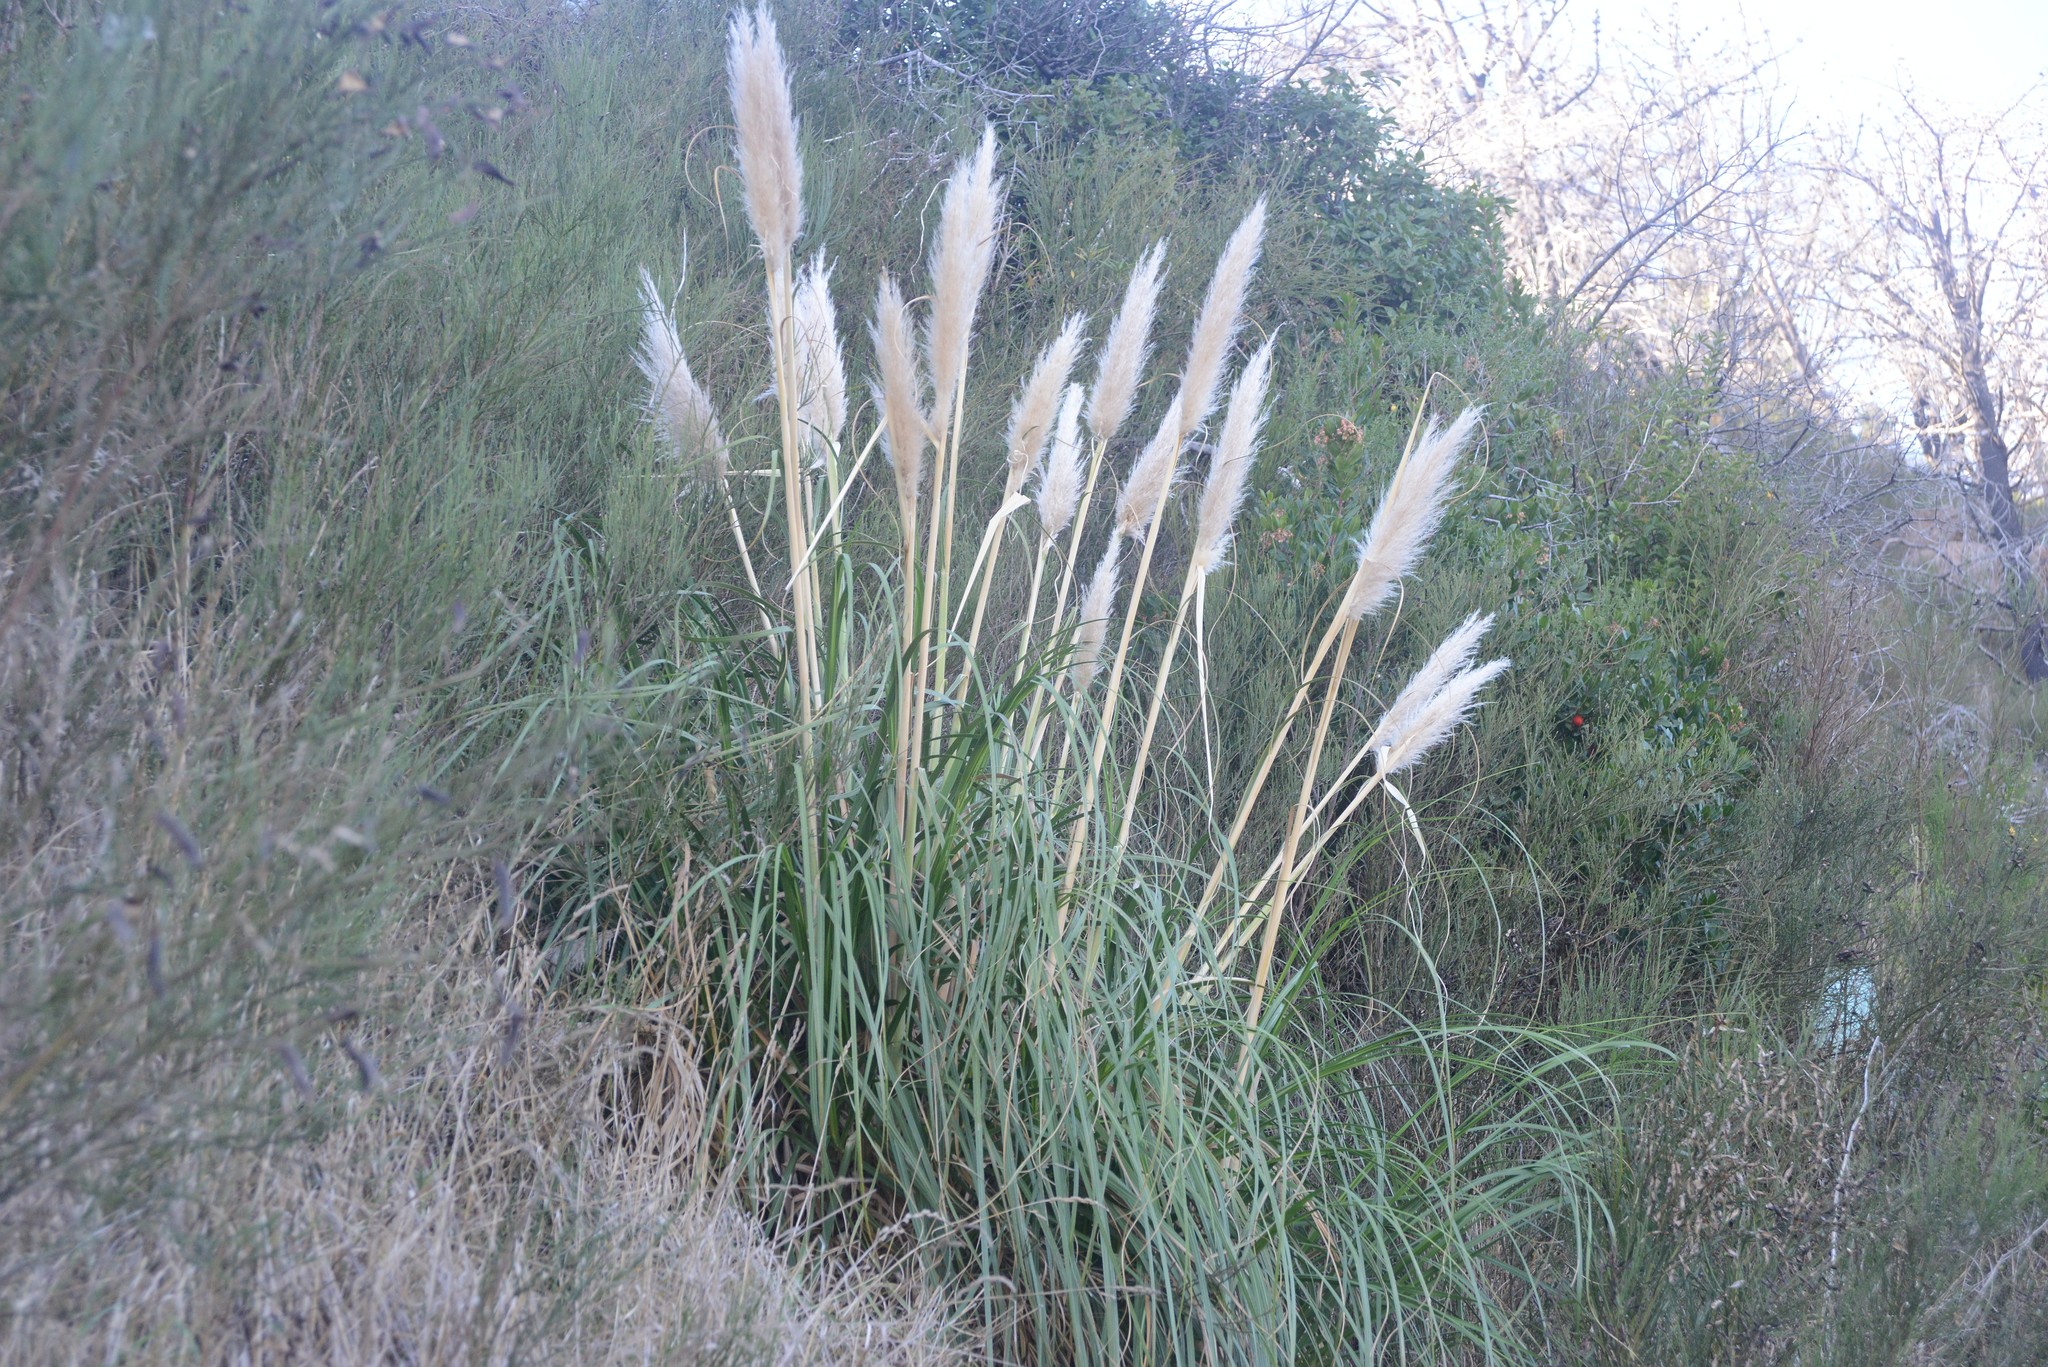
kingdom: Plantae
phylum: Tracheophyta
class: Liliopsida
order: Poales
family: Poaceae
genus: Cortaderia
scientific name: Cortaderia selloana
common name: Uruguayan pampas grass
